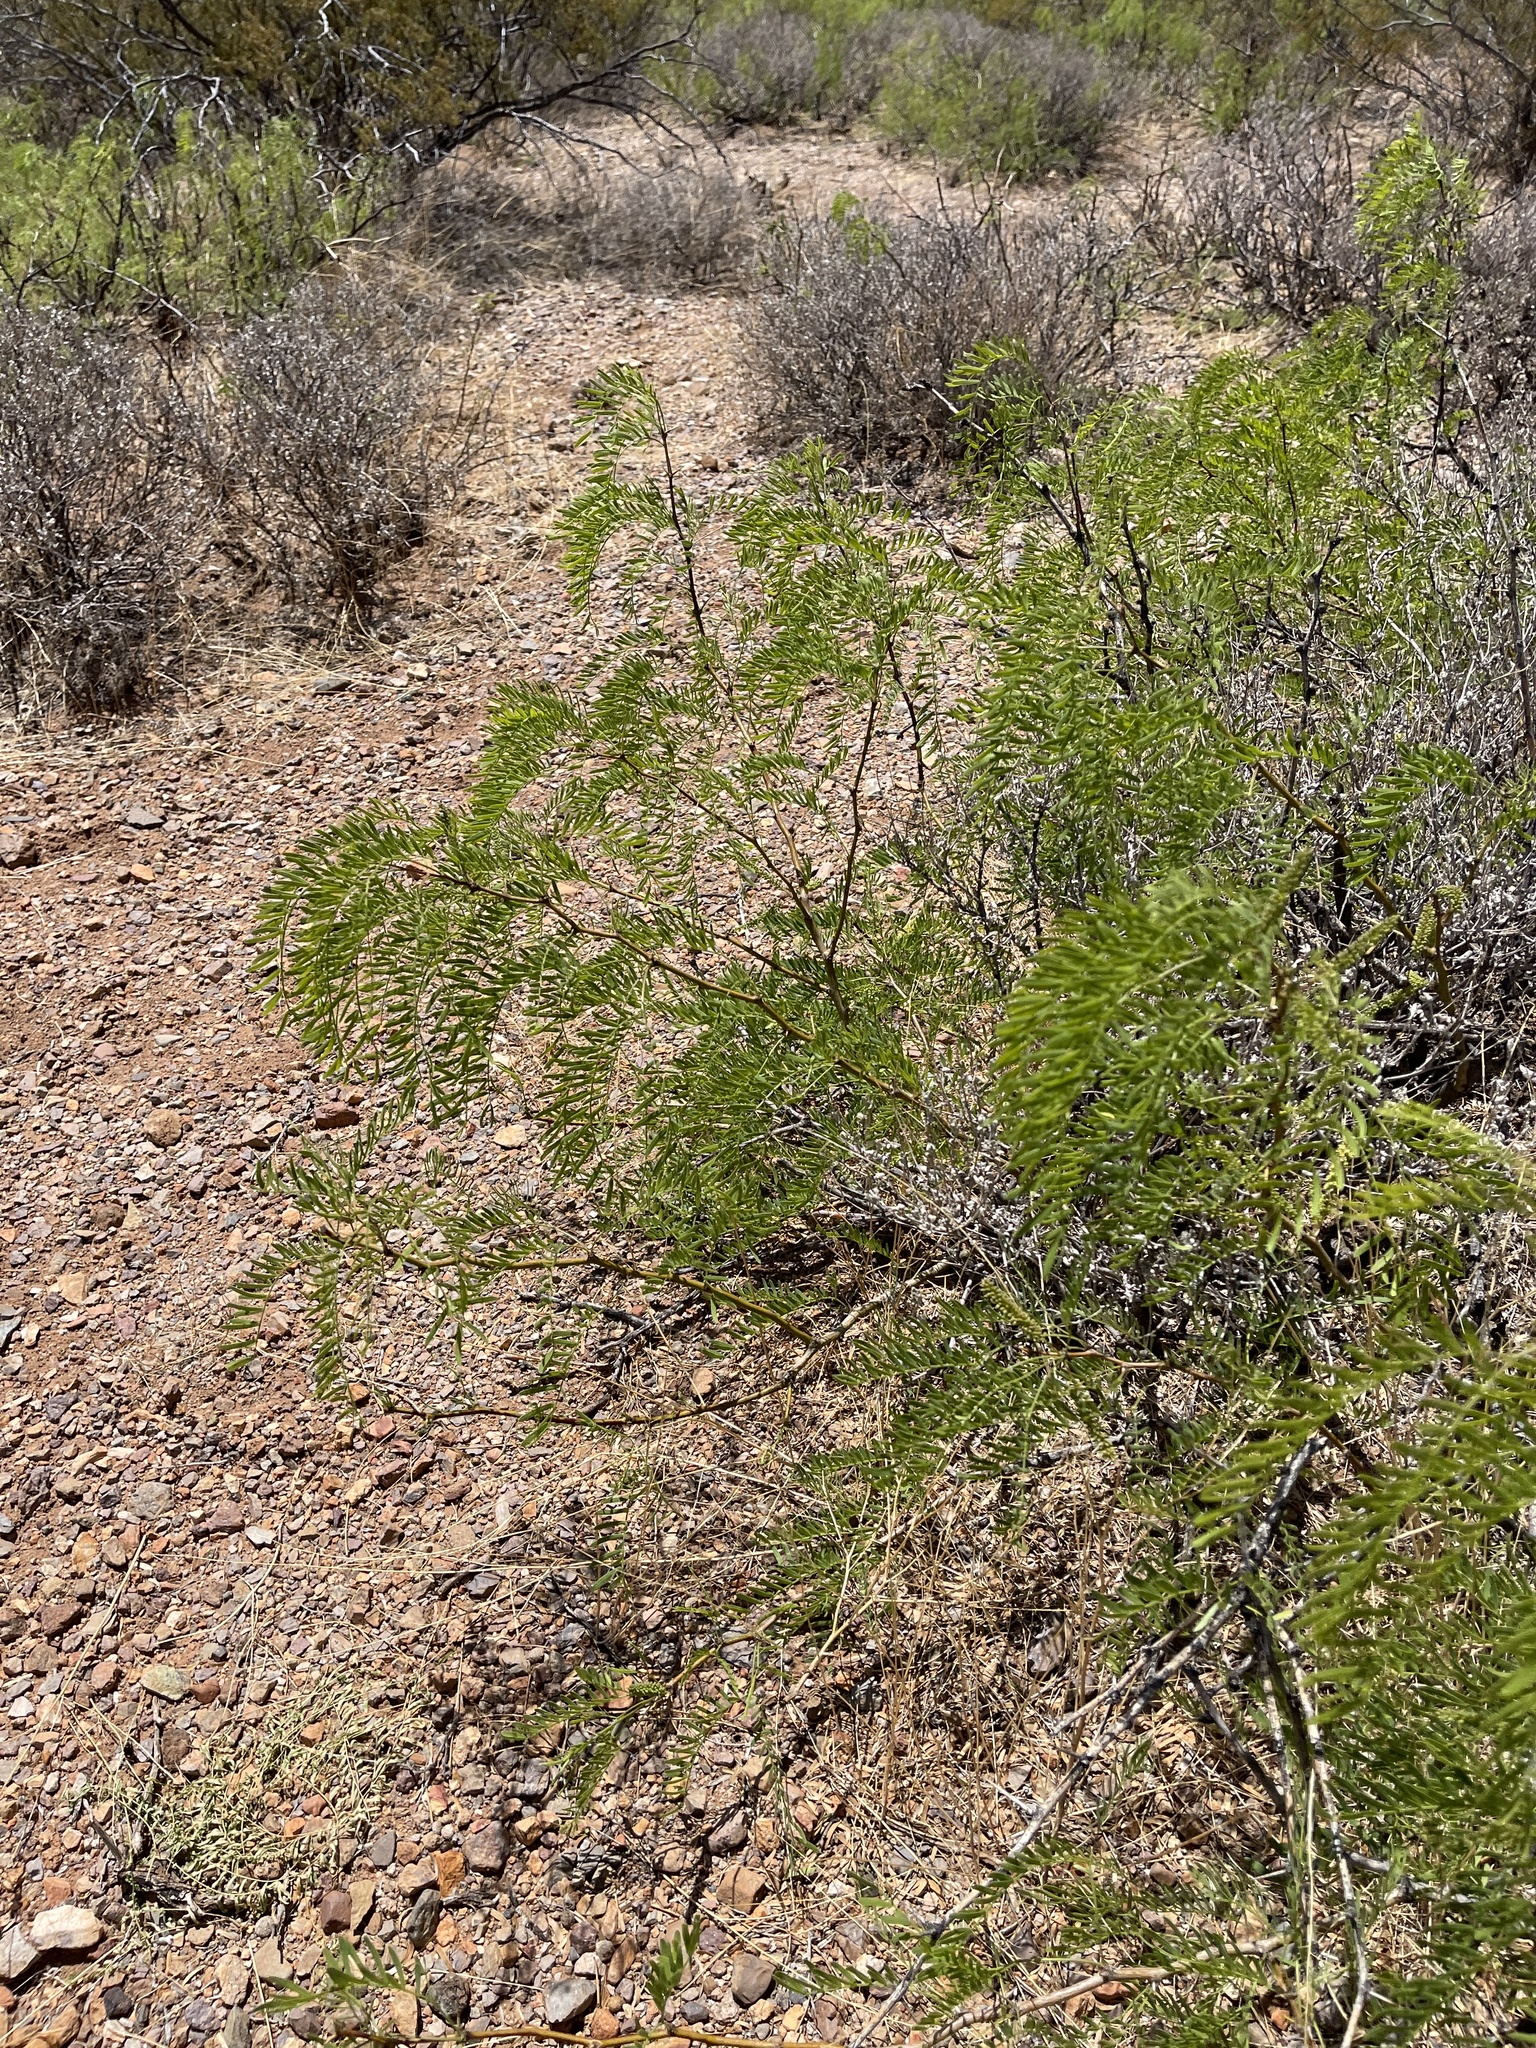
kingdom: Plantae
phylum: Tracheophyta
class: Magnoliopsida
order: Fabales
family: Fabaceae
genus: Prosopis
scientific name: Prosopis glandulosa
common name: Honey mesquite
